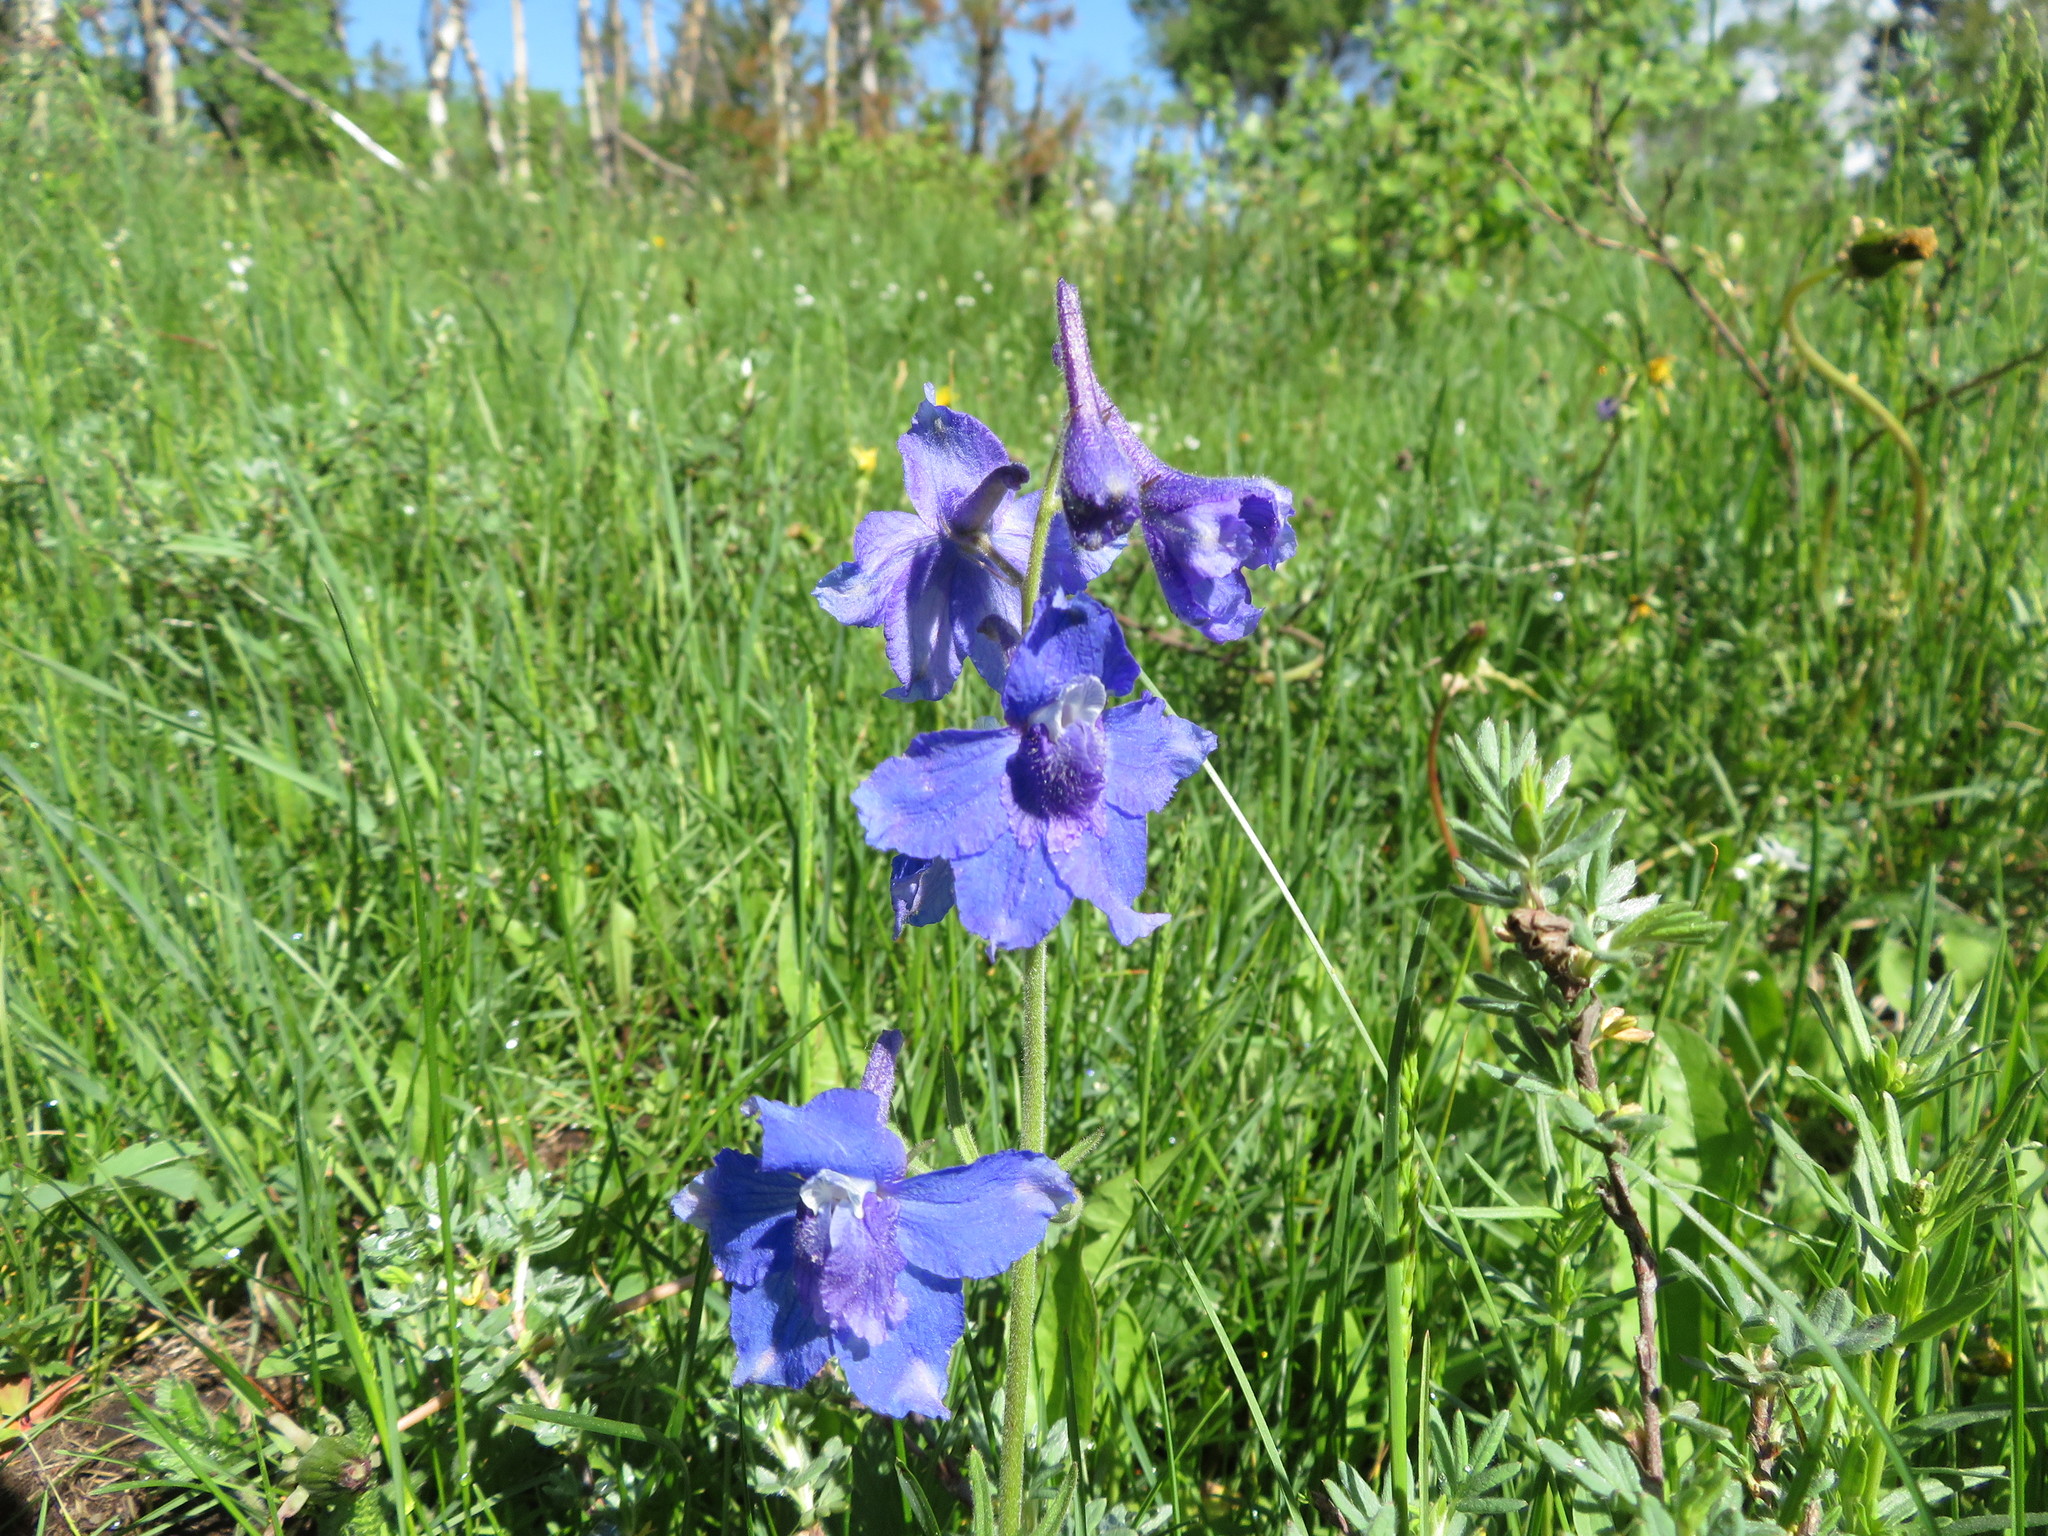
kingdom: Plantae
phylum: Tracheophyta
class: Magnoliopsida
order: Ranunculales
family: Ranunculaceae
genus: Delphinium
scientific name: Delphinium bicolor
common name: Low larkspur
